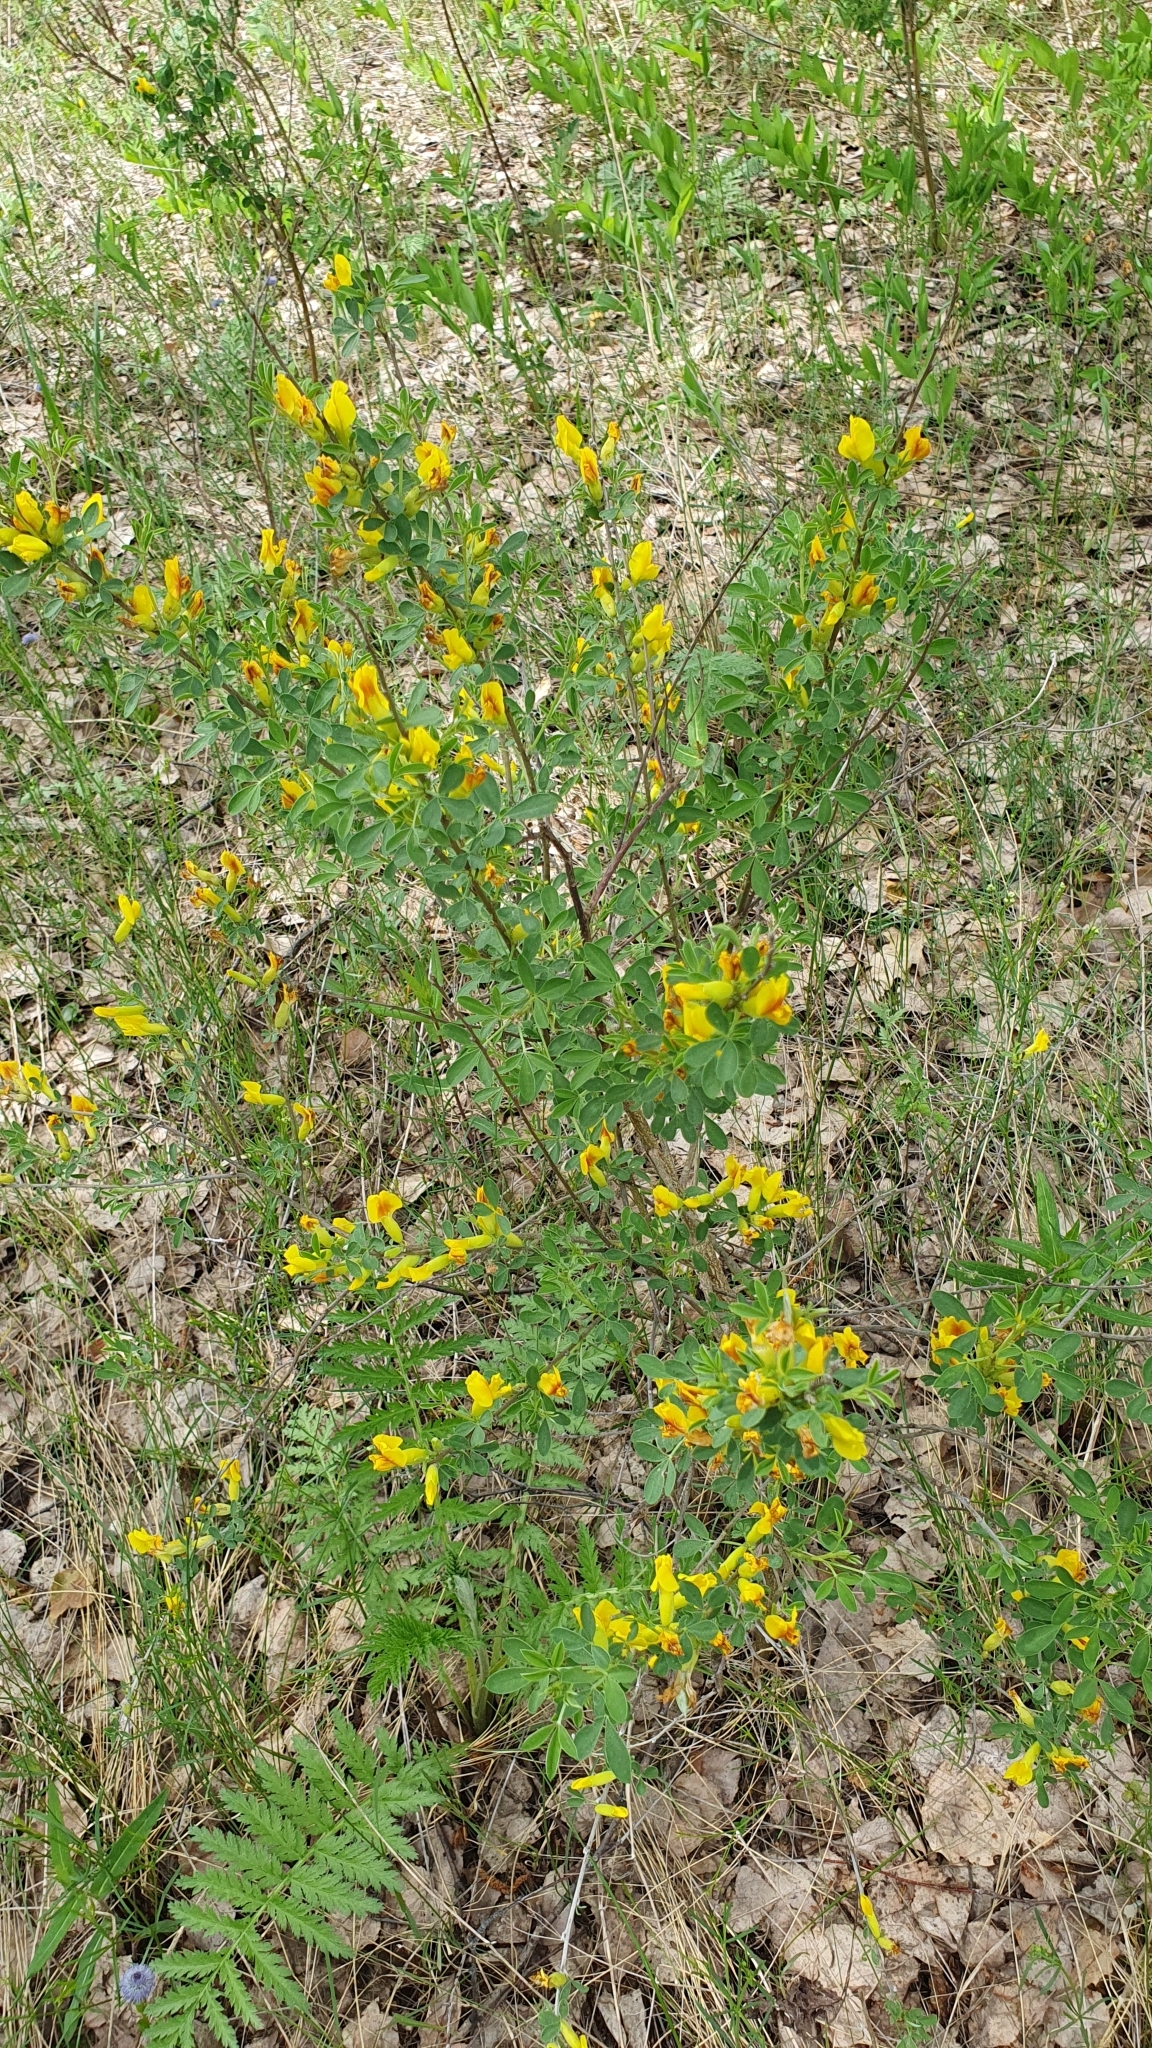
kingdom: Plantae
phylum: Tracheophyta
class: Magnoliopsida
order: Fabales
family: Fabaceae
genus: Chamaecytisus
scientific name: Chamaecytisus ruthenicus
